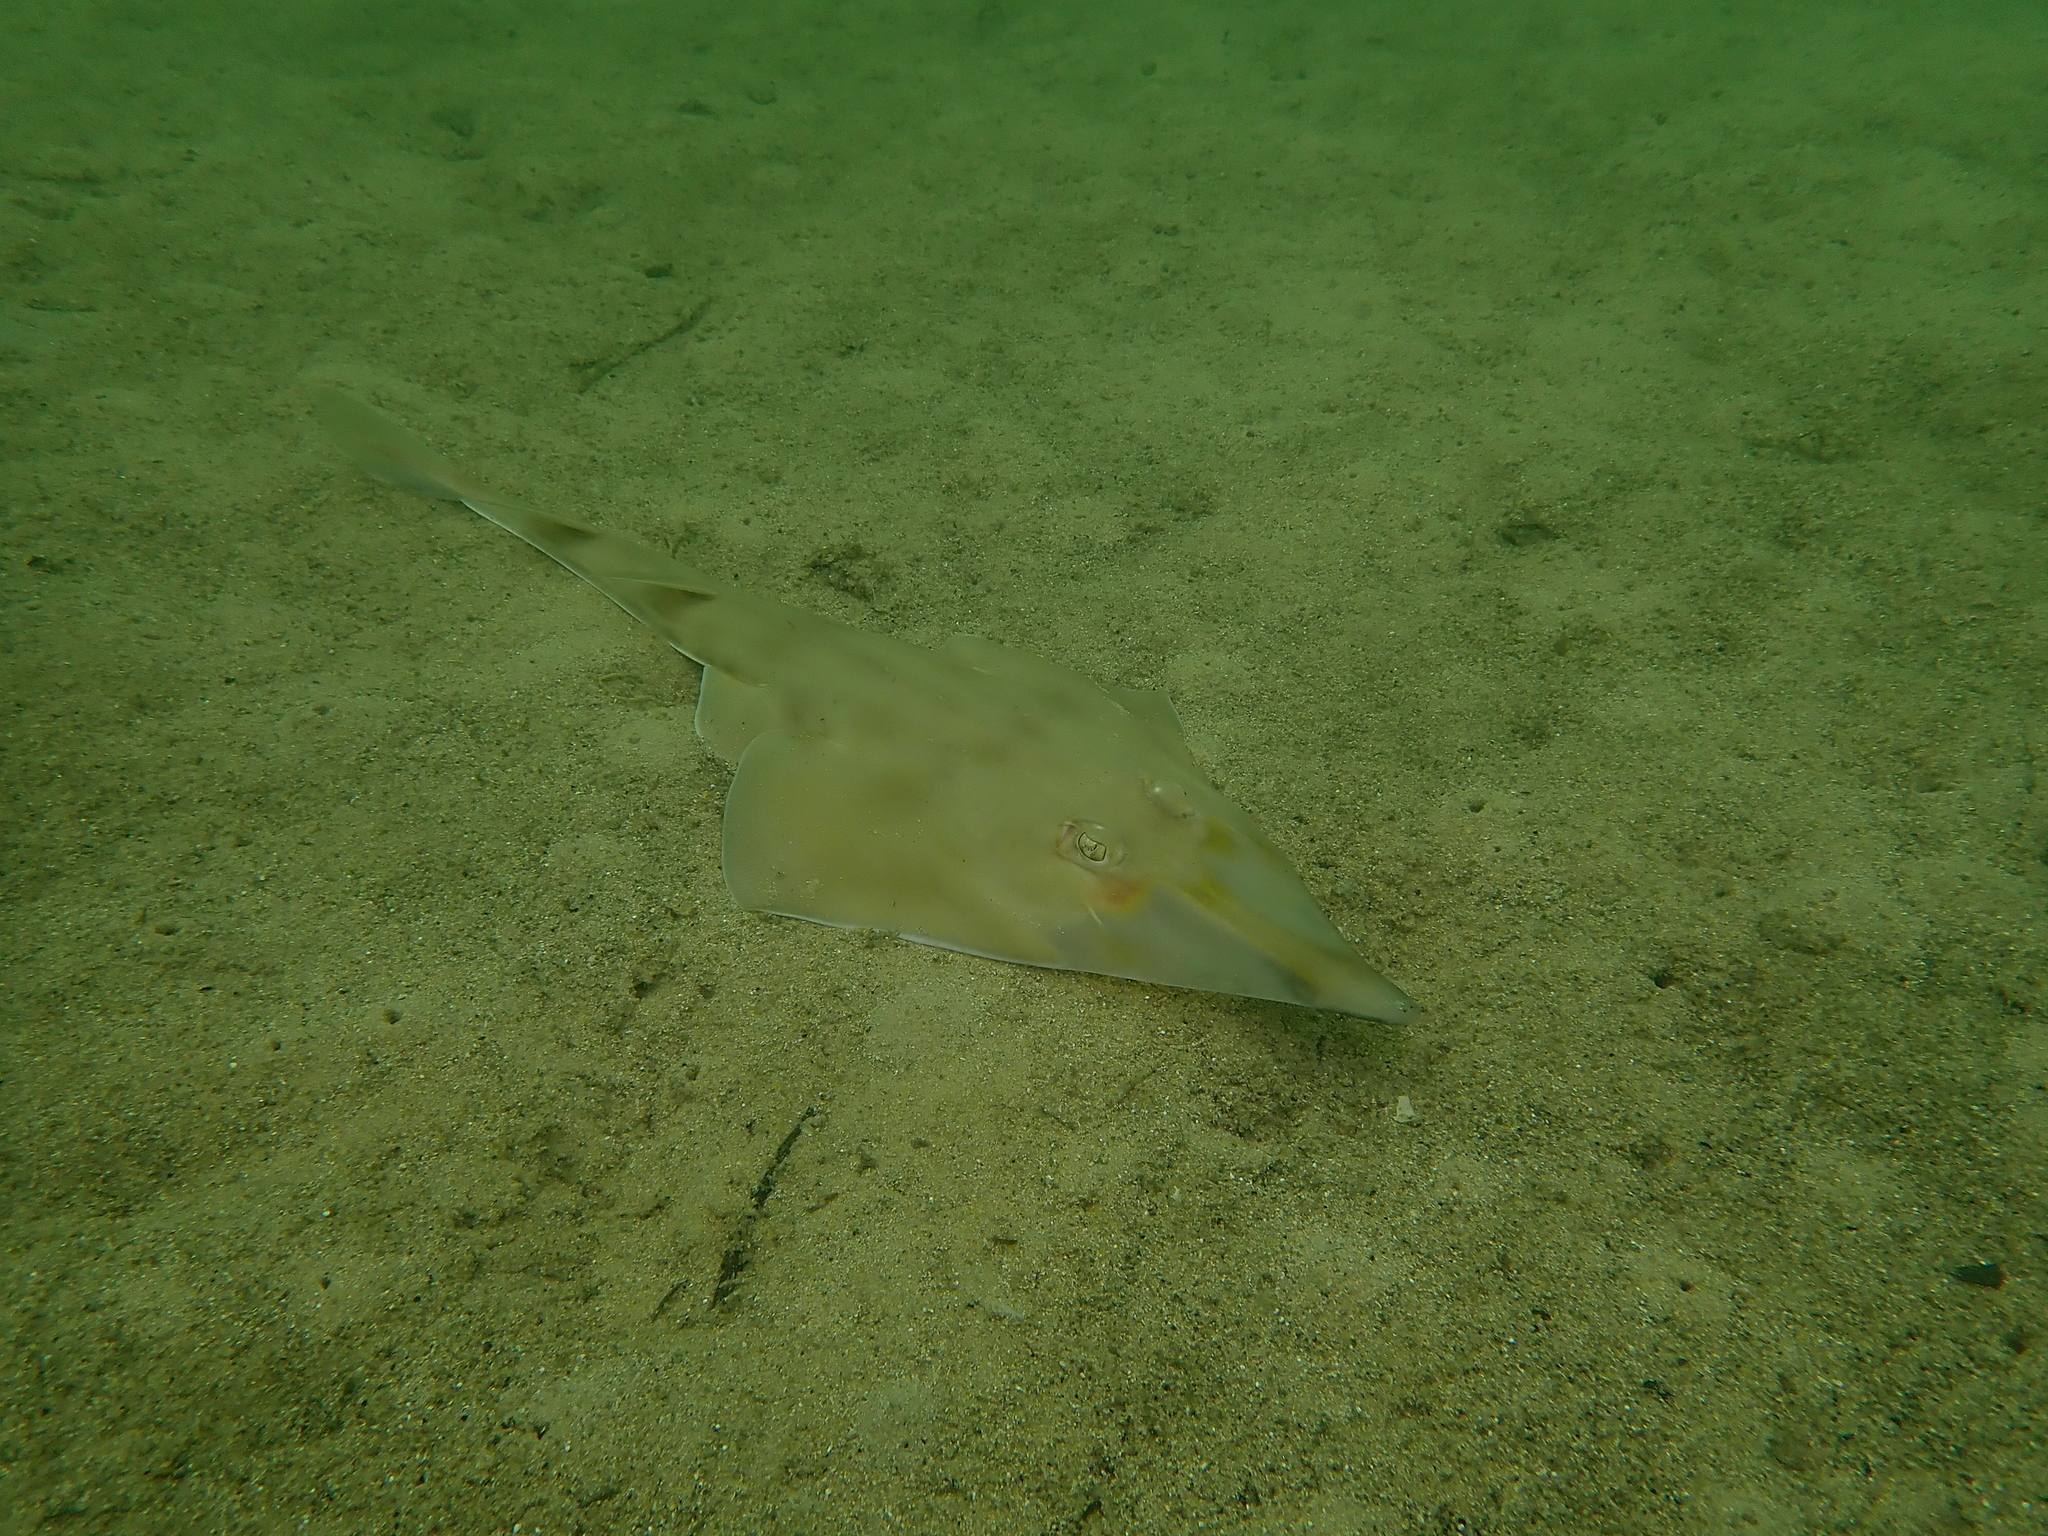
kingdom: Animalia
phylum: Chordata
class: Elasmobranchii
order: Rhinopristiformes
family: Rhinobatidae
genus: Aptychotrema
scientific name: Aptychotrema rostrata
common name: Eastern shovelnose ray
